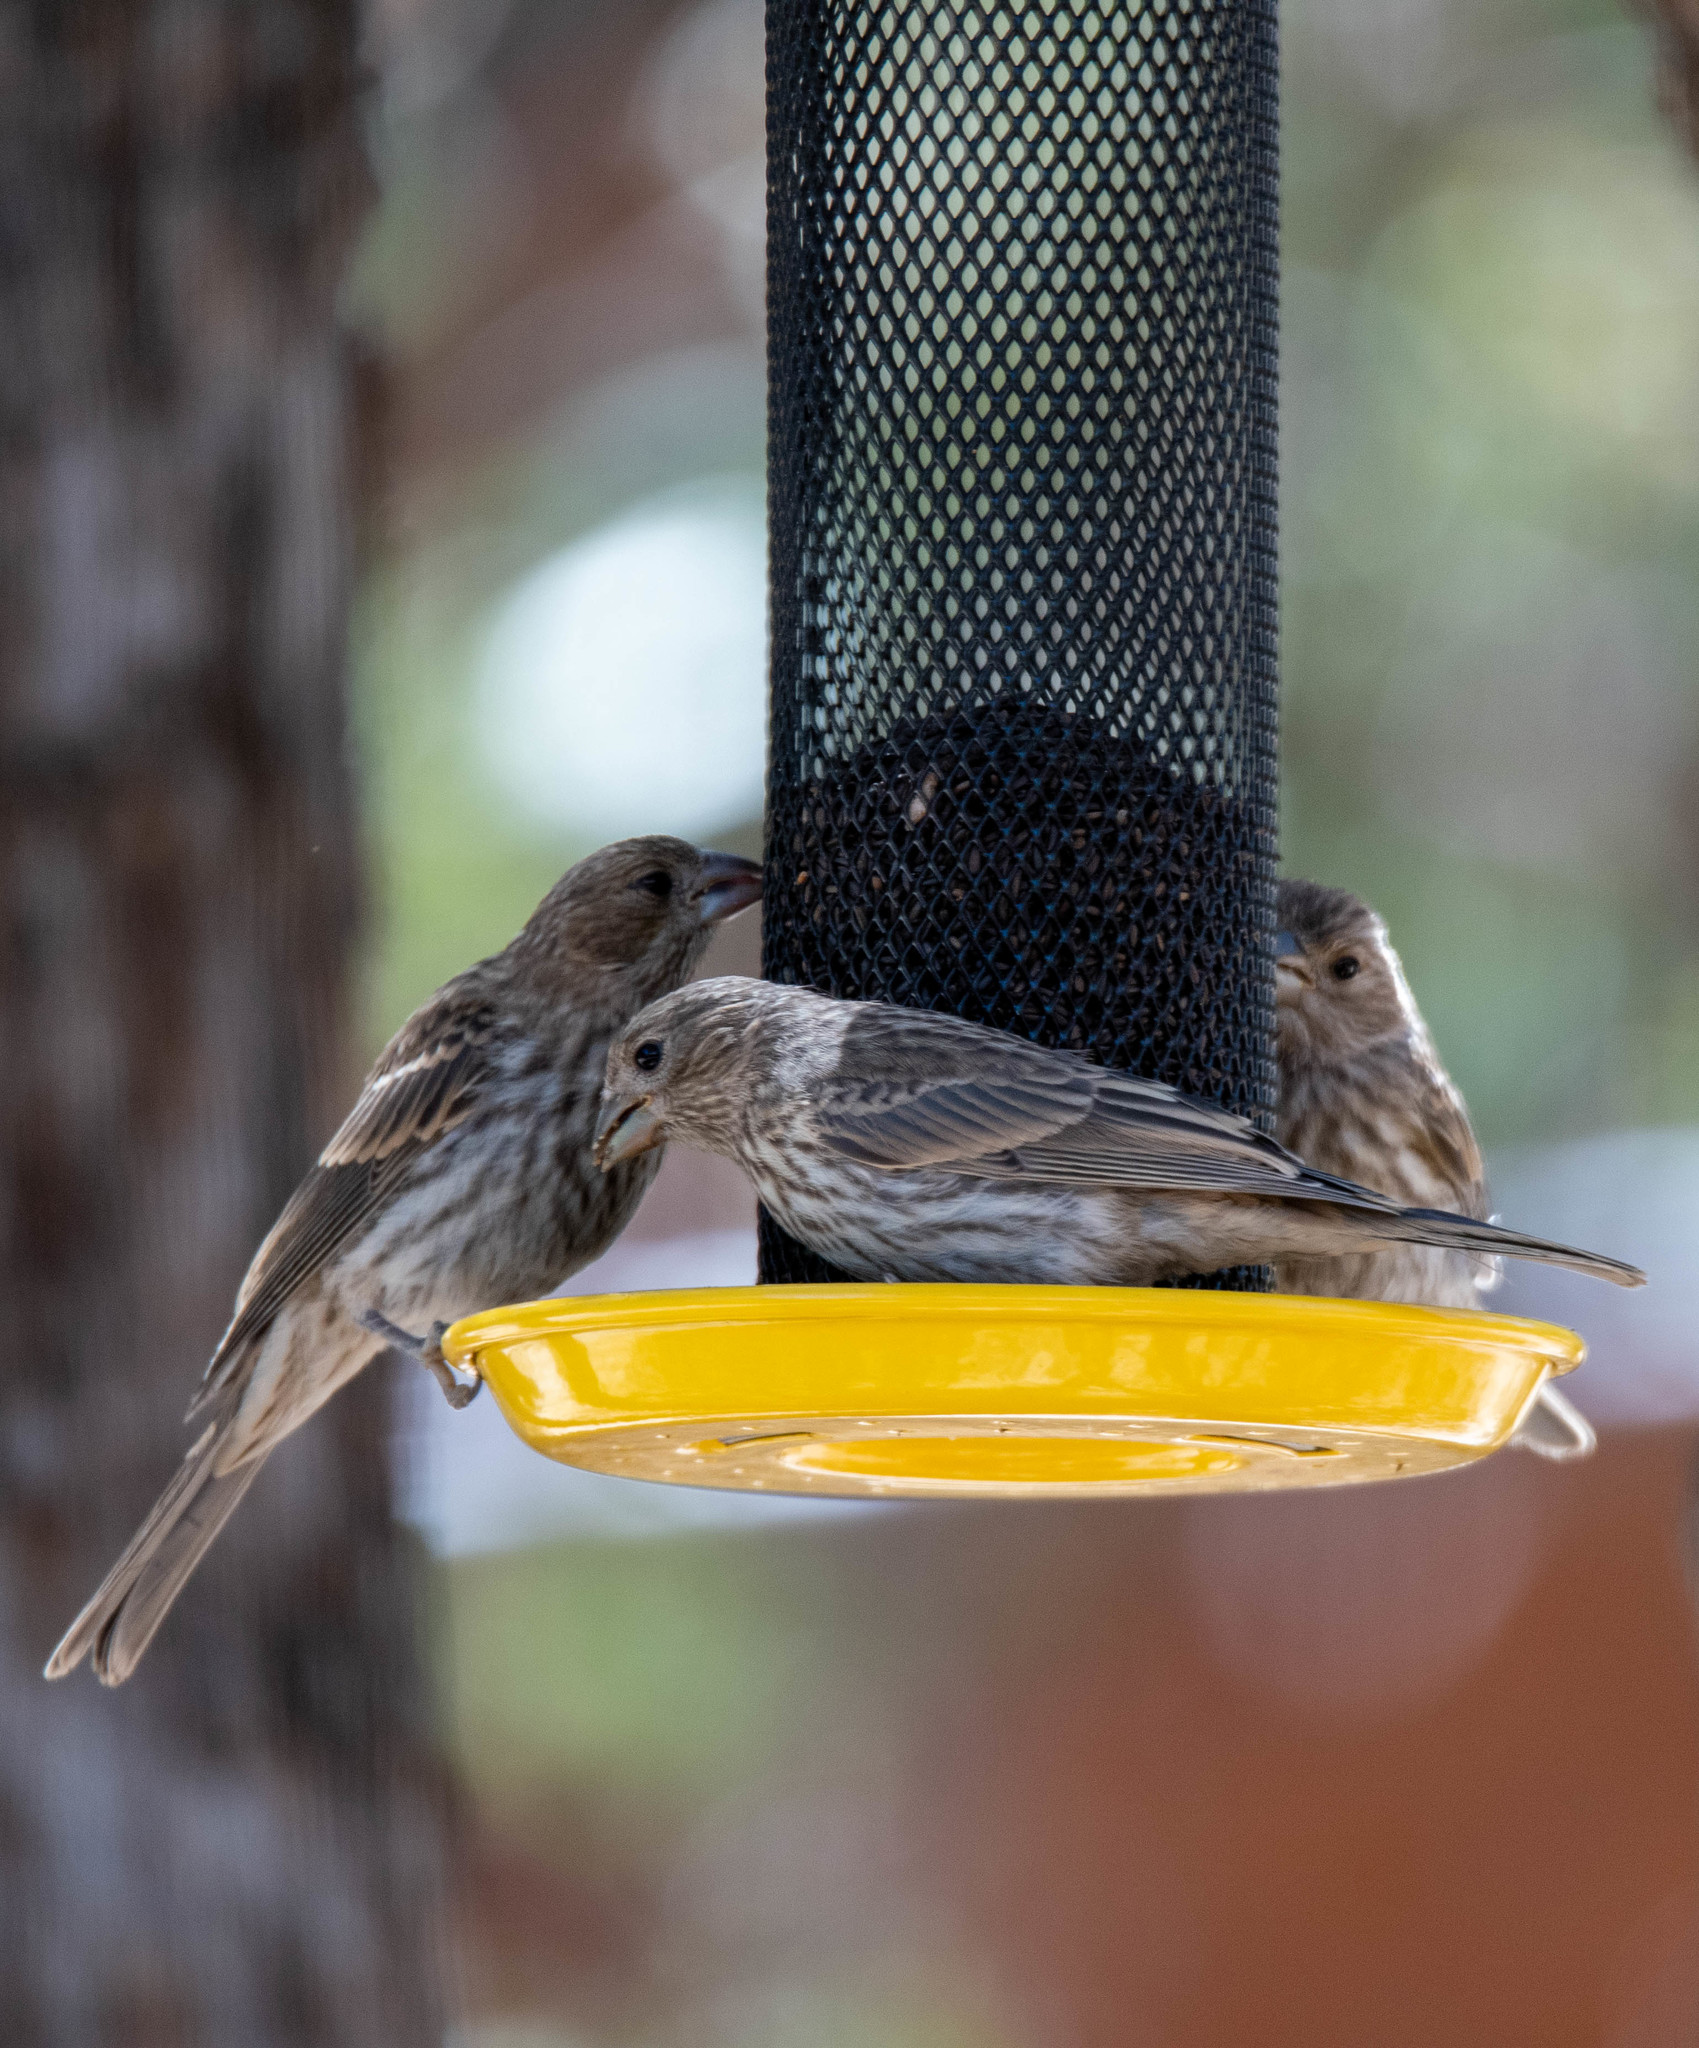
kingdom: Animalia
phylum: Chordata
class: Aves
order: Passeriformes
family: Fringillidae
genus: Haemorhous
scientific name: Haemorhous mexicanus
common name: House finch
